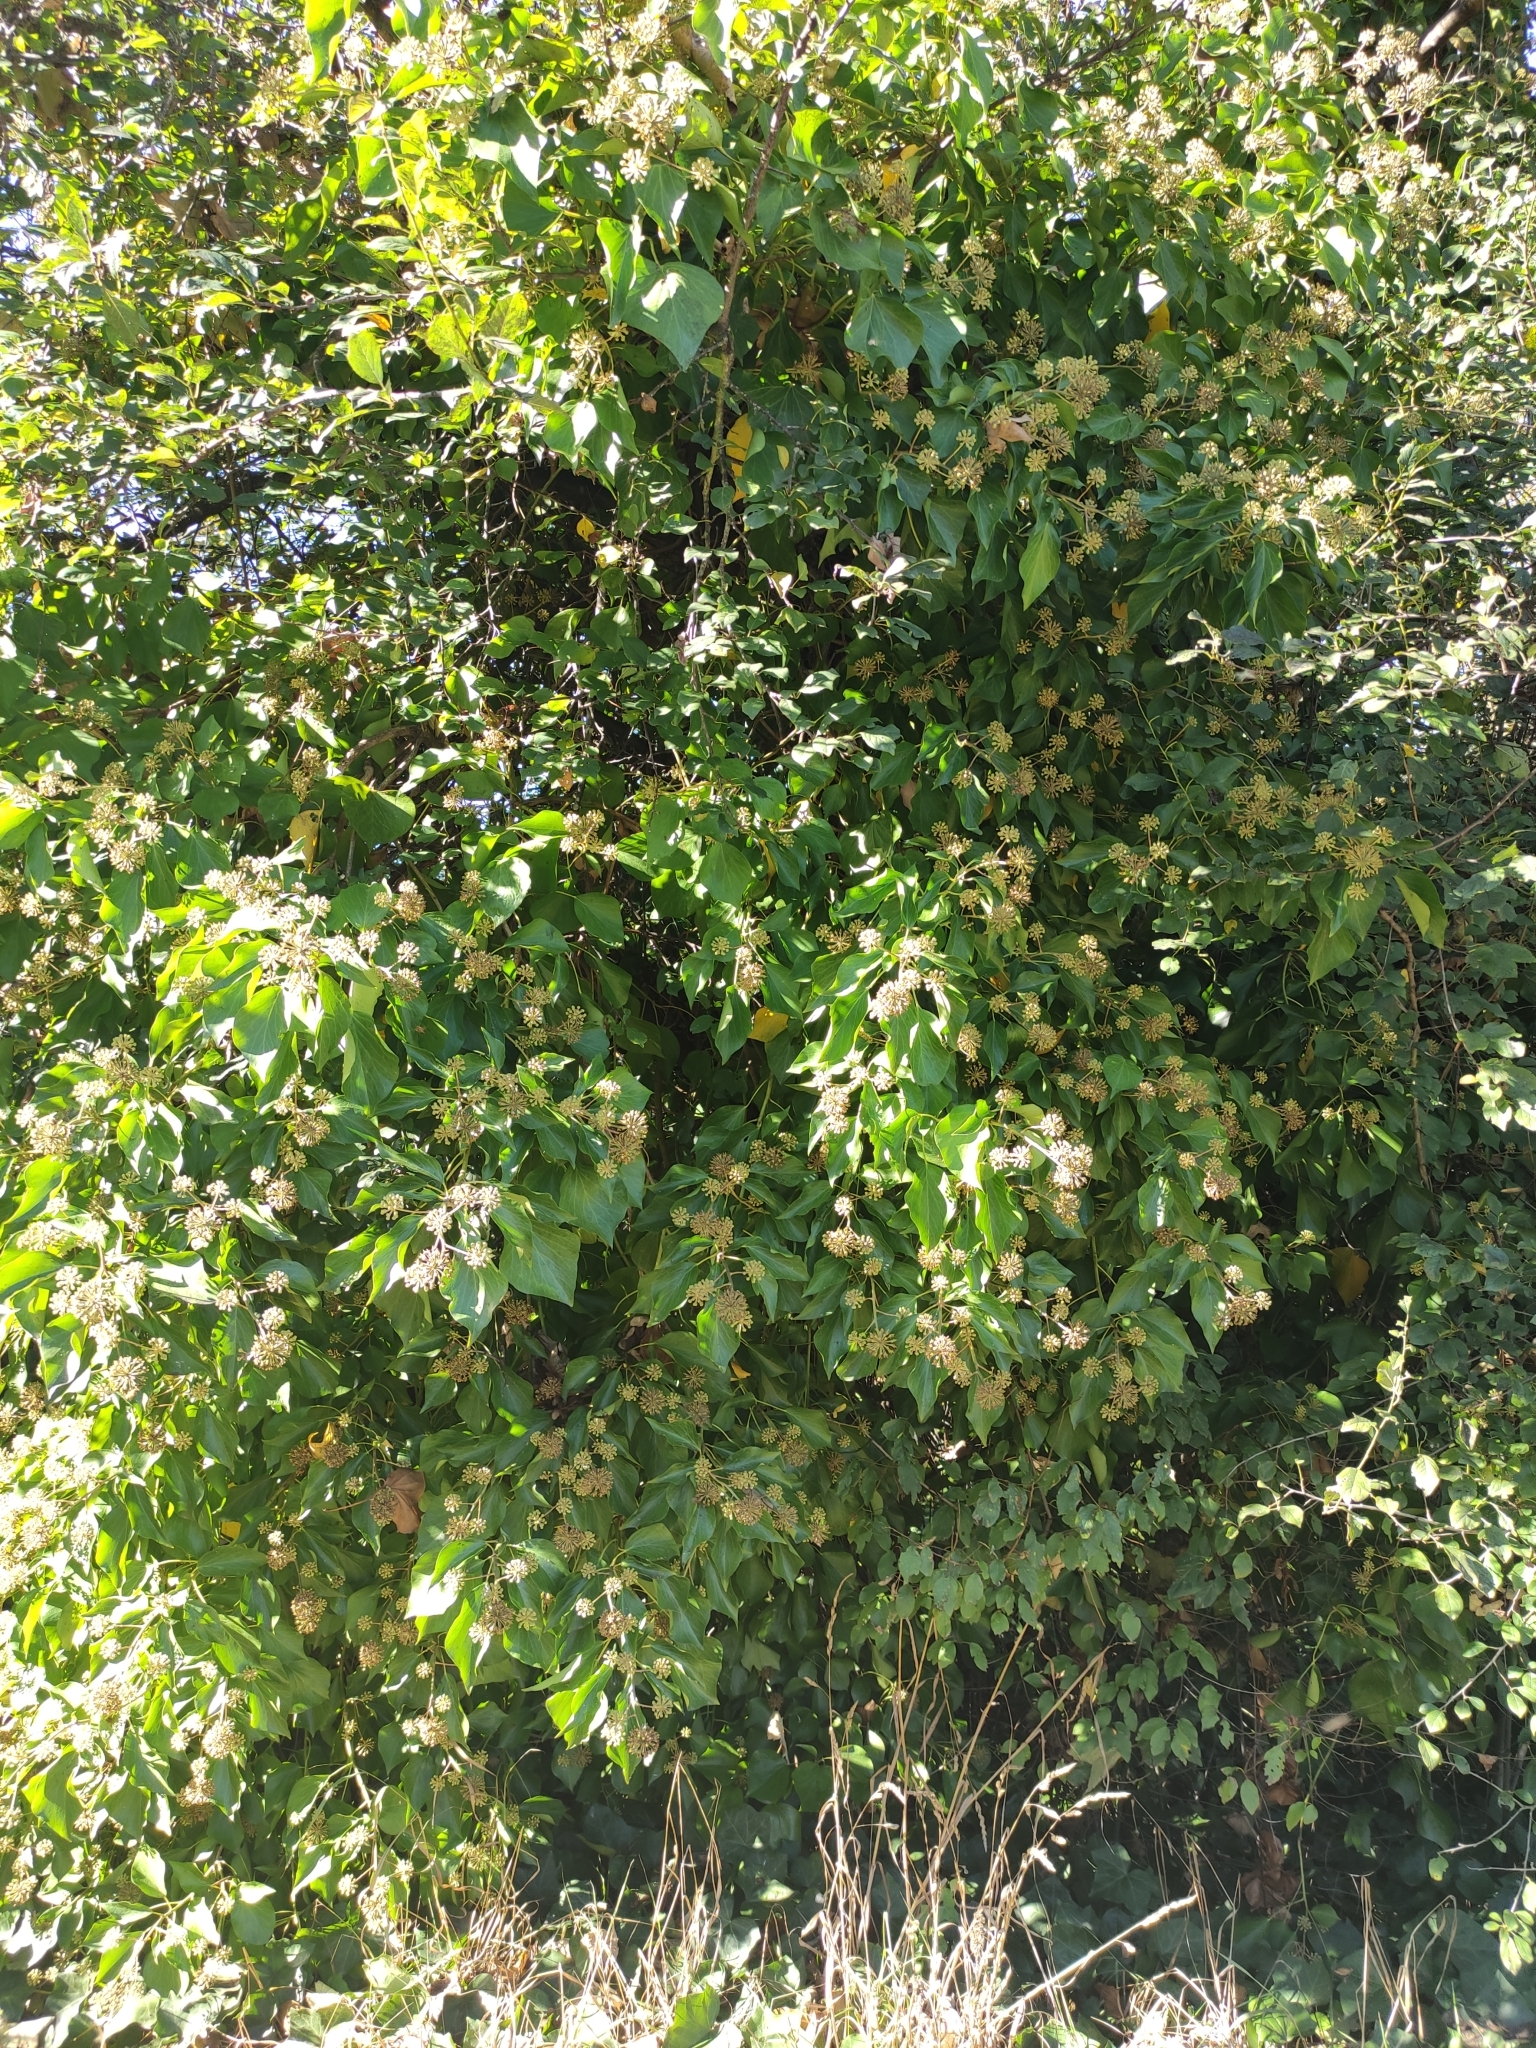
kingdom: Plantae
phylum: Tracheophyta
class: Magnoliopsida
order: Apiales
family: Araliaceae
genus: Hedera
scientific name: Hedera helix
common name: Ivy
